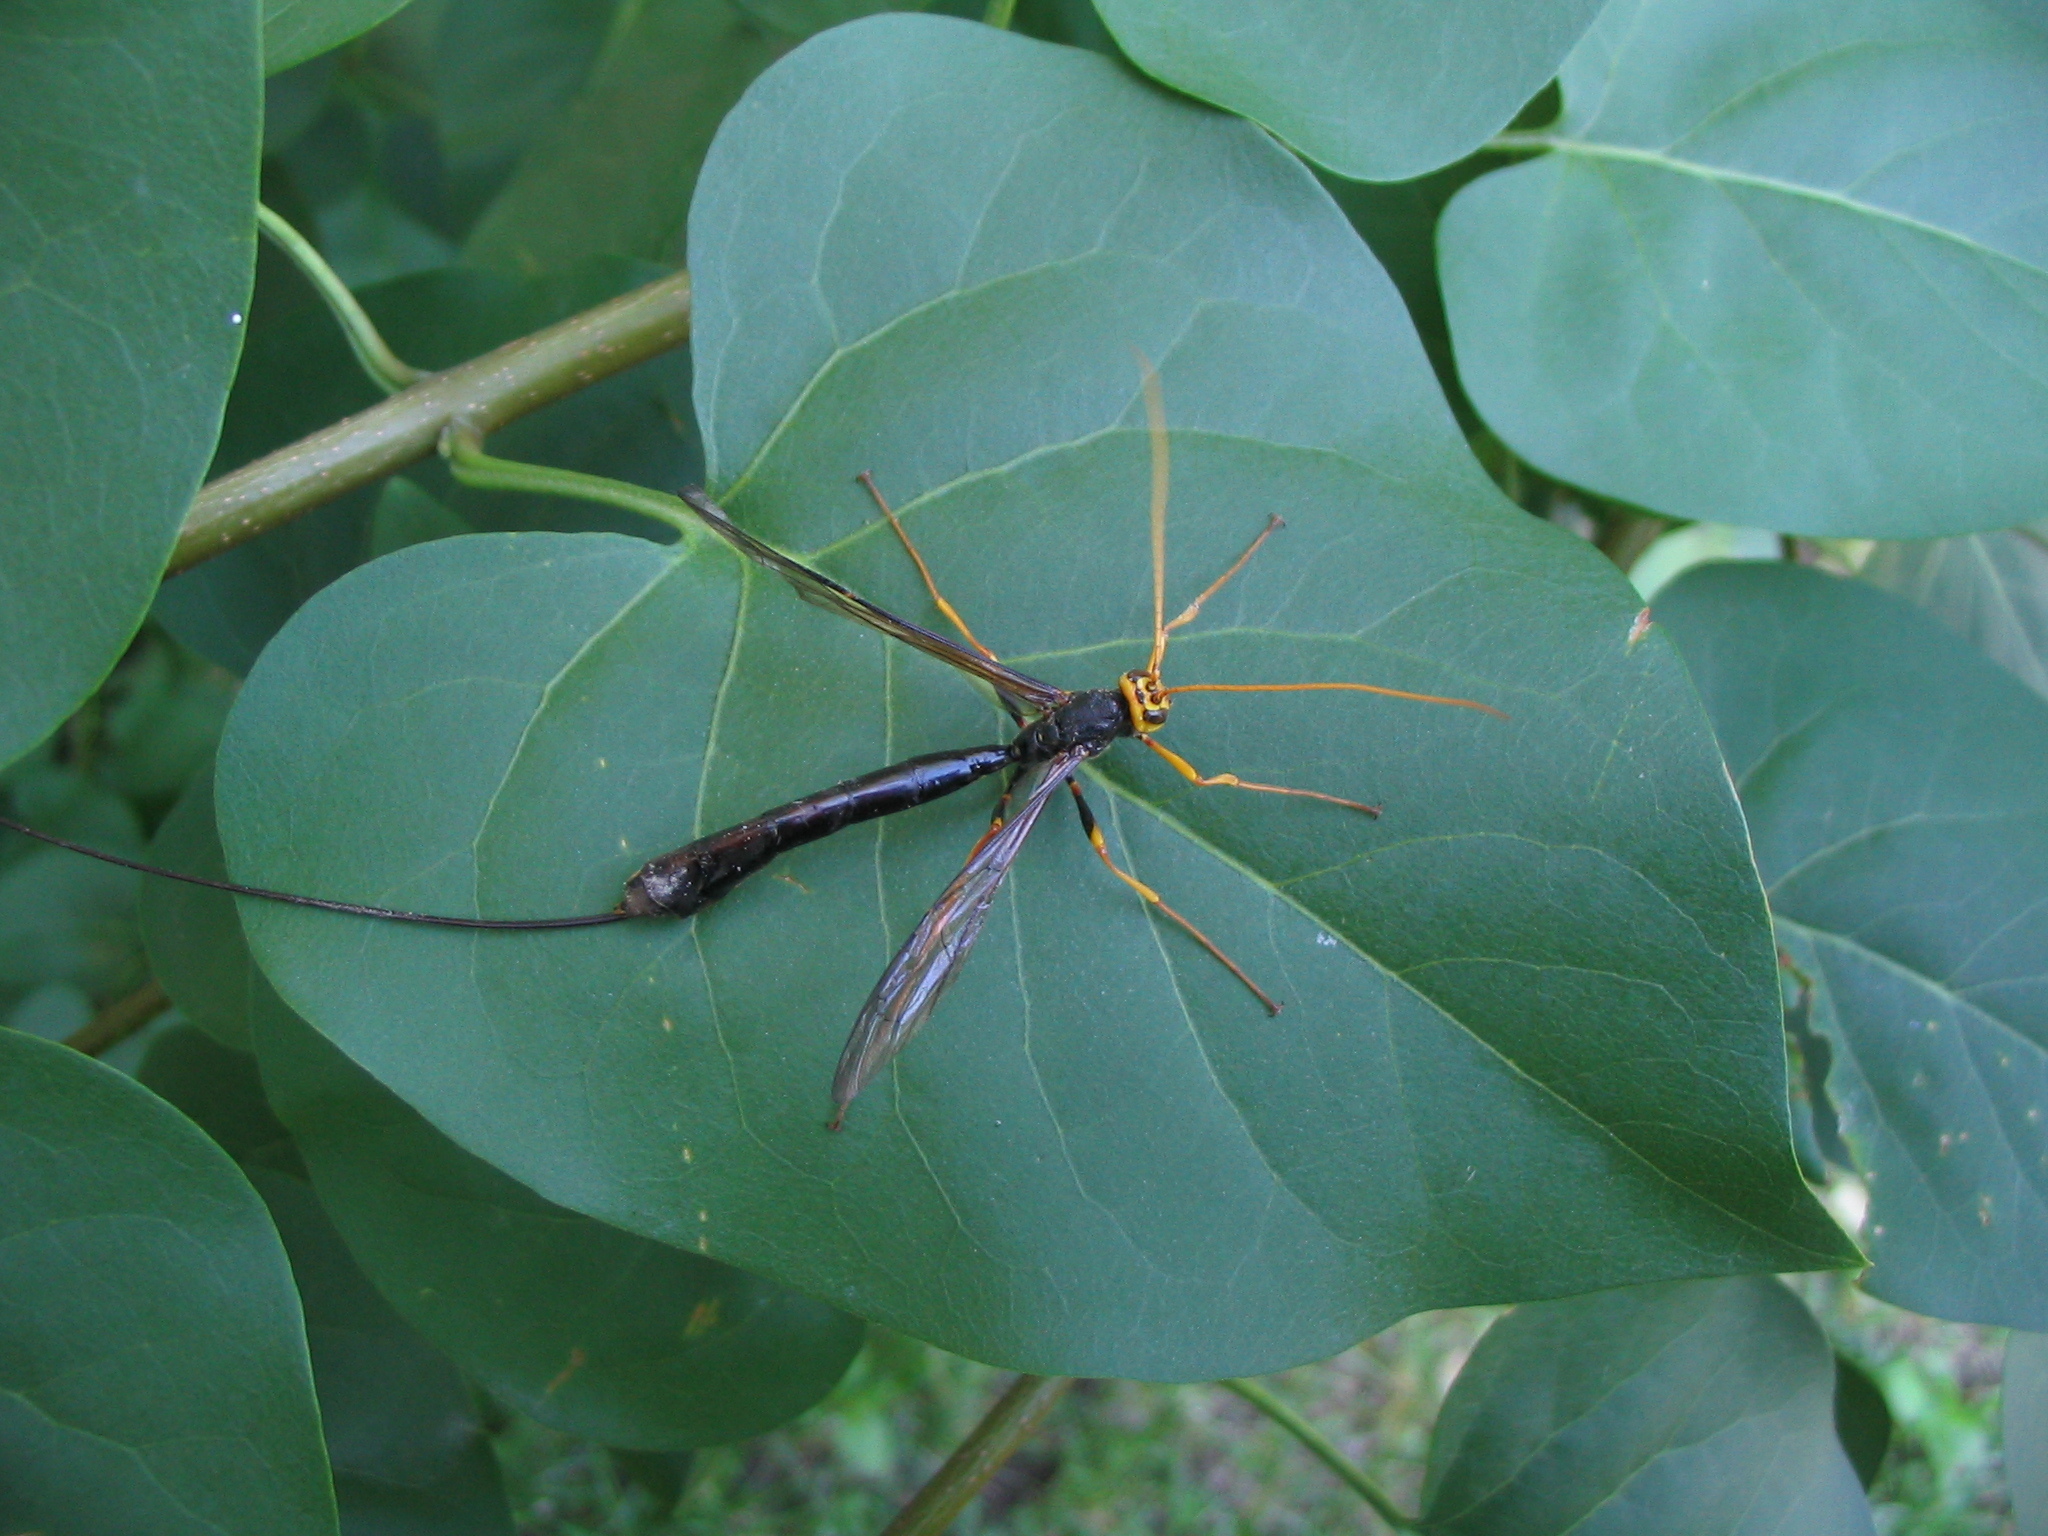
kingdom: Animalia
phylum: Arthropoda
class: Insecta
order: Hymenoptera
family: Ichneumonidae
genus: Megarhyssa
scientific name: Megarhyssa atrata
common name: Black giant ichneumonid wasp
